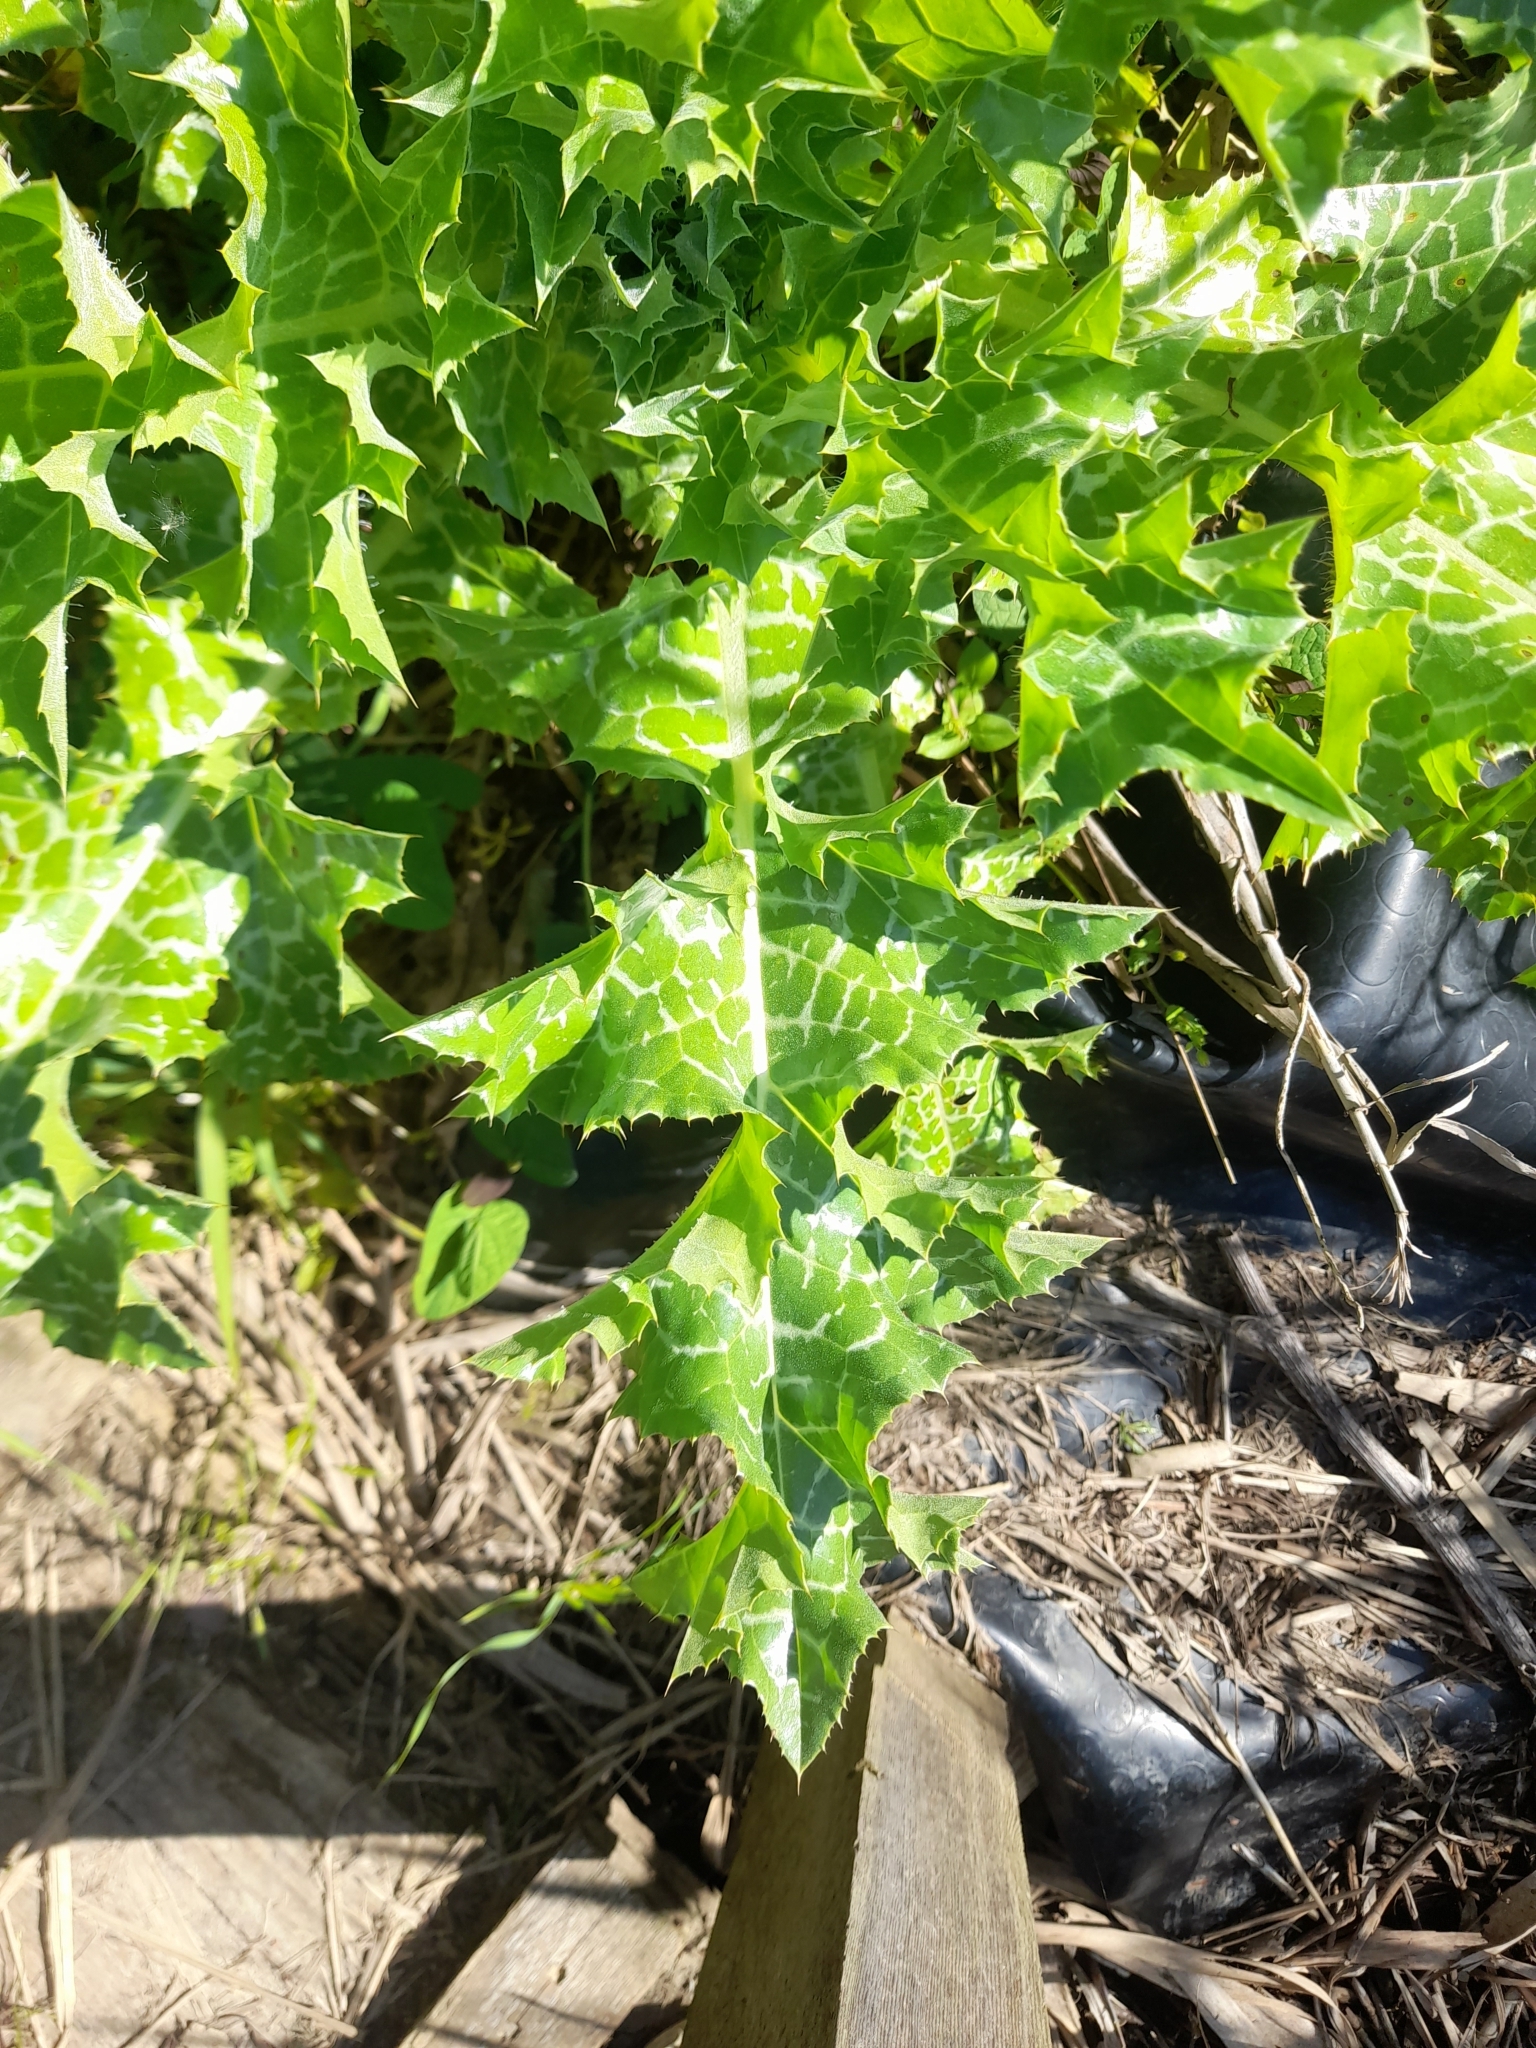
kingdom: Plantae
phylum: Tracheophyta
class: Magnoliopsida
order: Asterales
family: Asteraceae
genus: Silybum
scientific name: Silybum marianum
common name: Milk thistle
